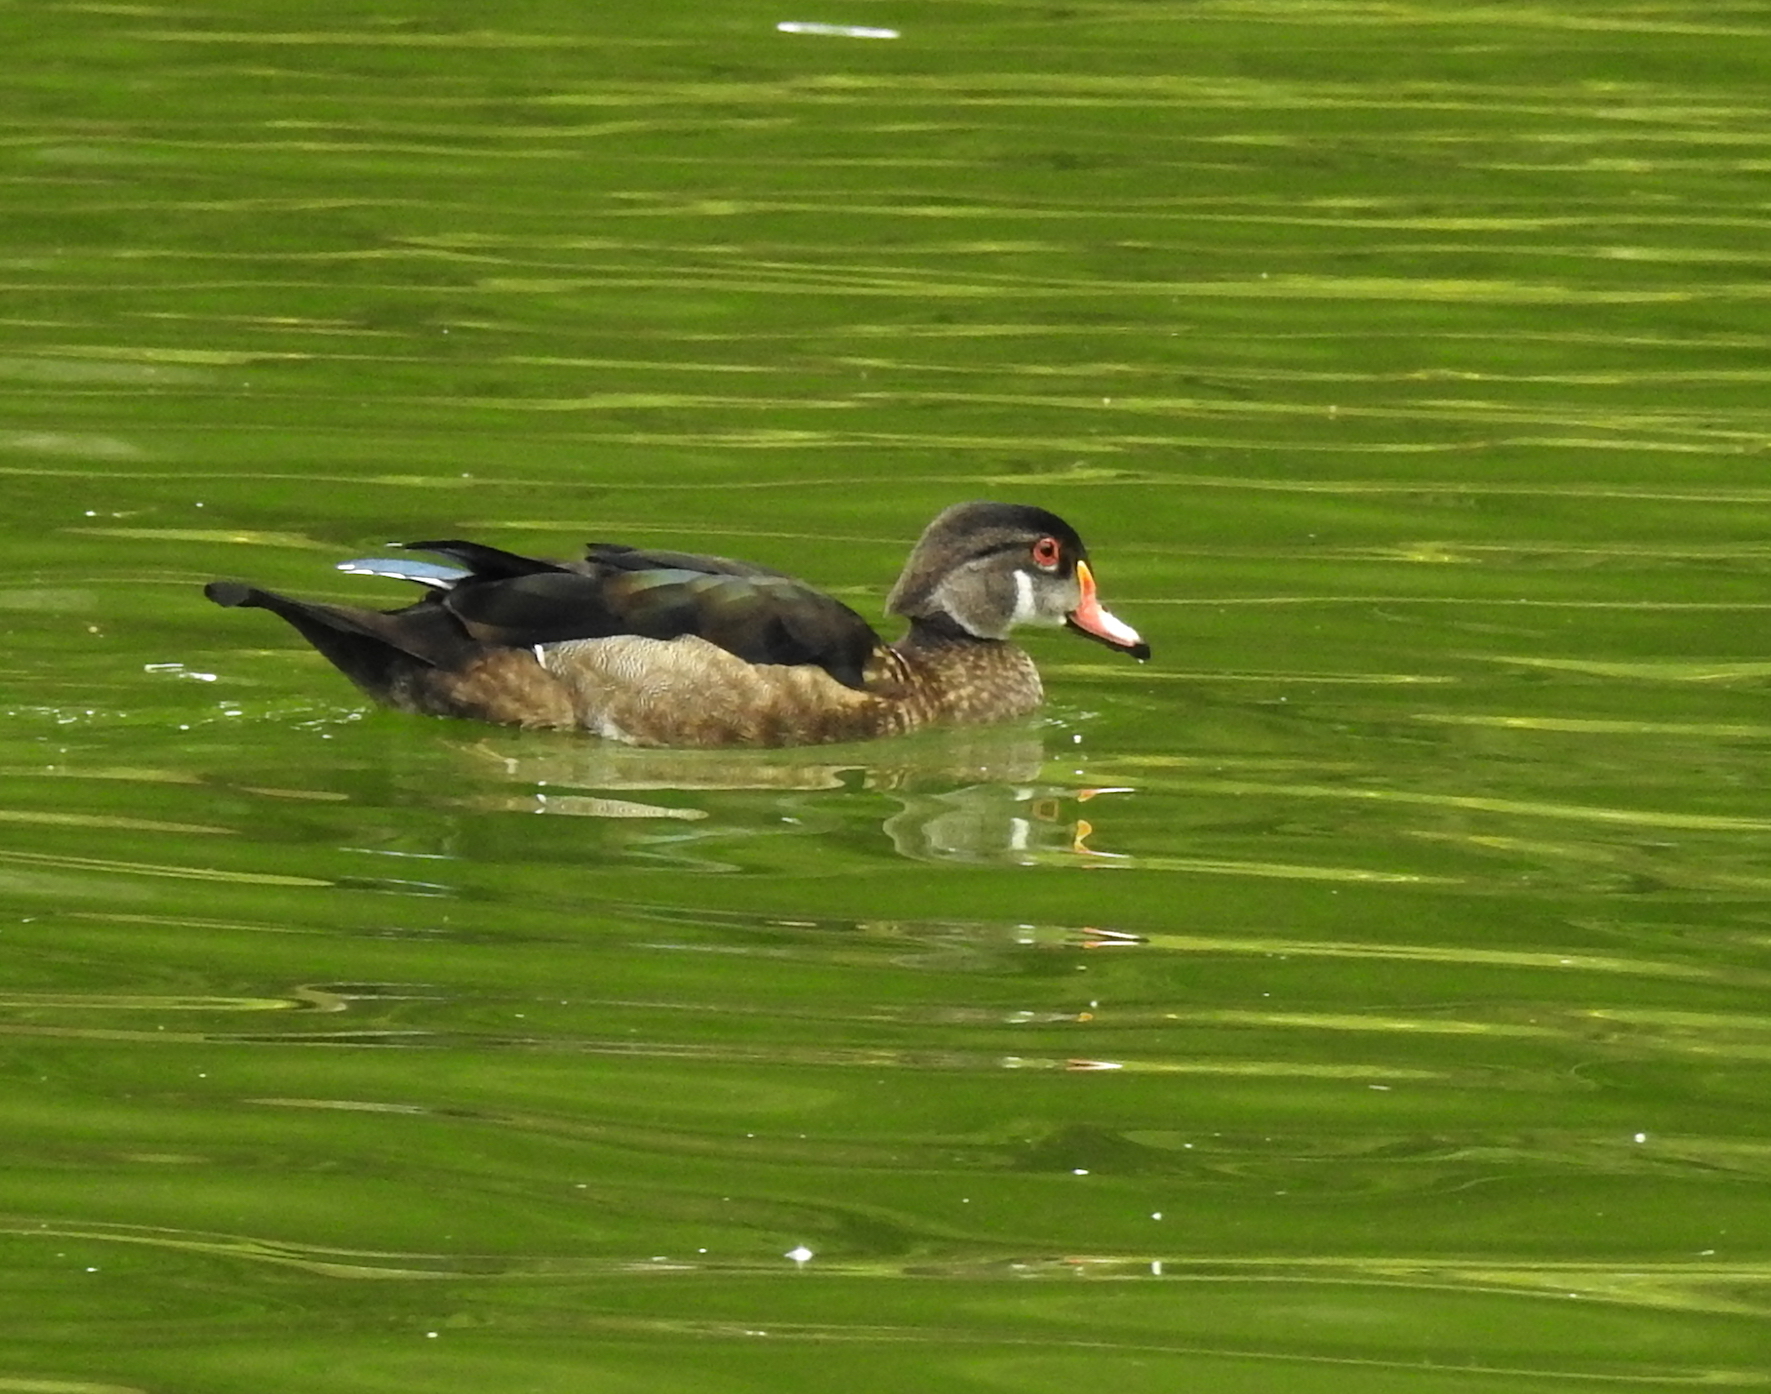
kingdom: Animalia
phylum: Chordata
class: Aves
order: Anseriformes
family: Anatidae
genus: Aix
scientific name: Aix sponsa
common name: Wood duck
